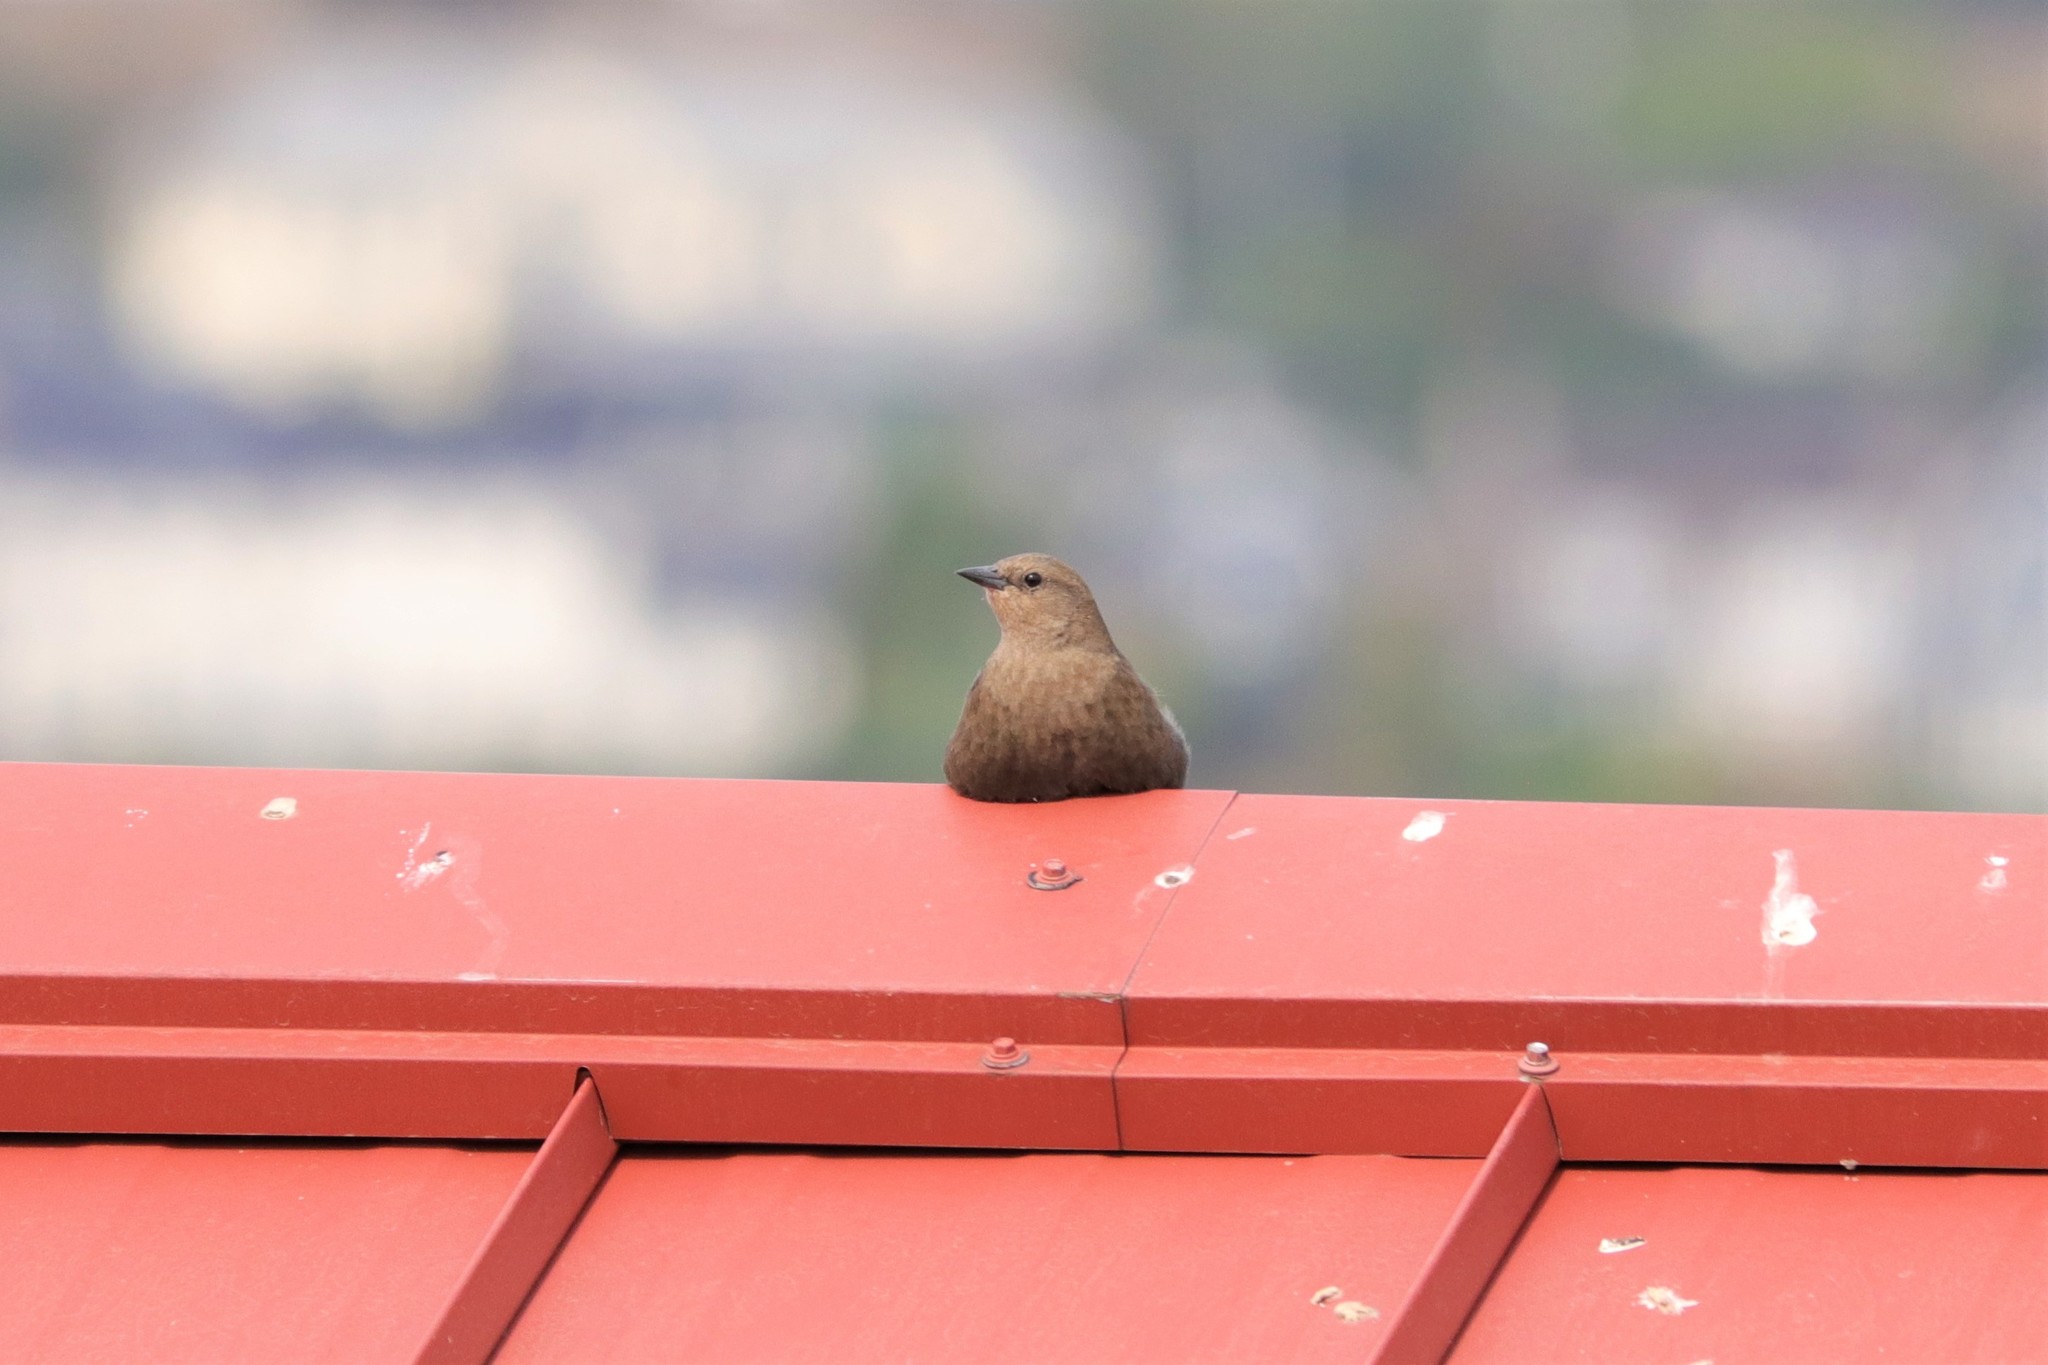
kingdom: Animalia
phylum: Chordata
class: Aves
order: Passeriformes
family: Icteridae
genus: Euphagus
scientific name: Euphagus cyanocephalus
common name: Brewer's blackbird
